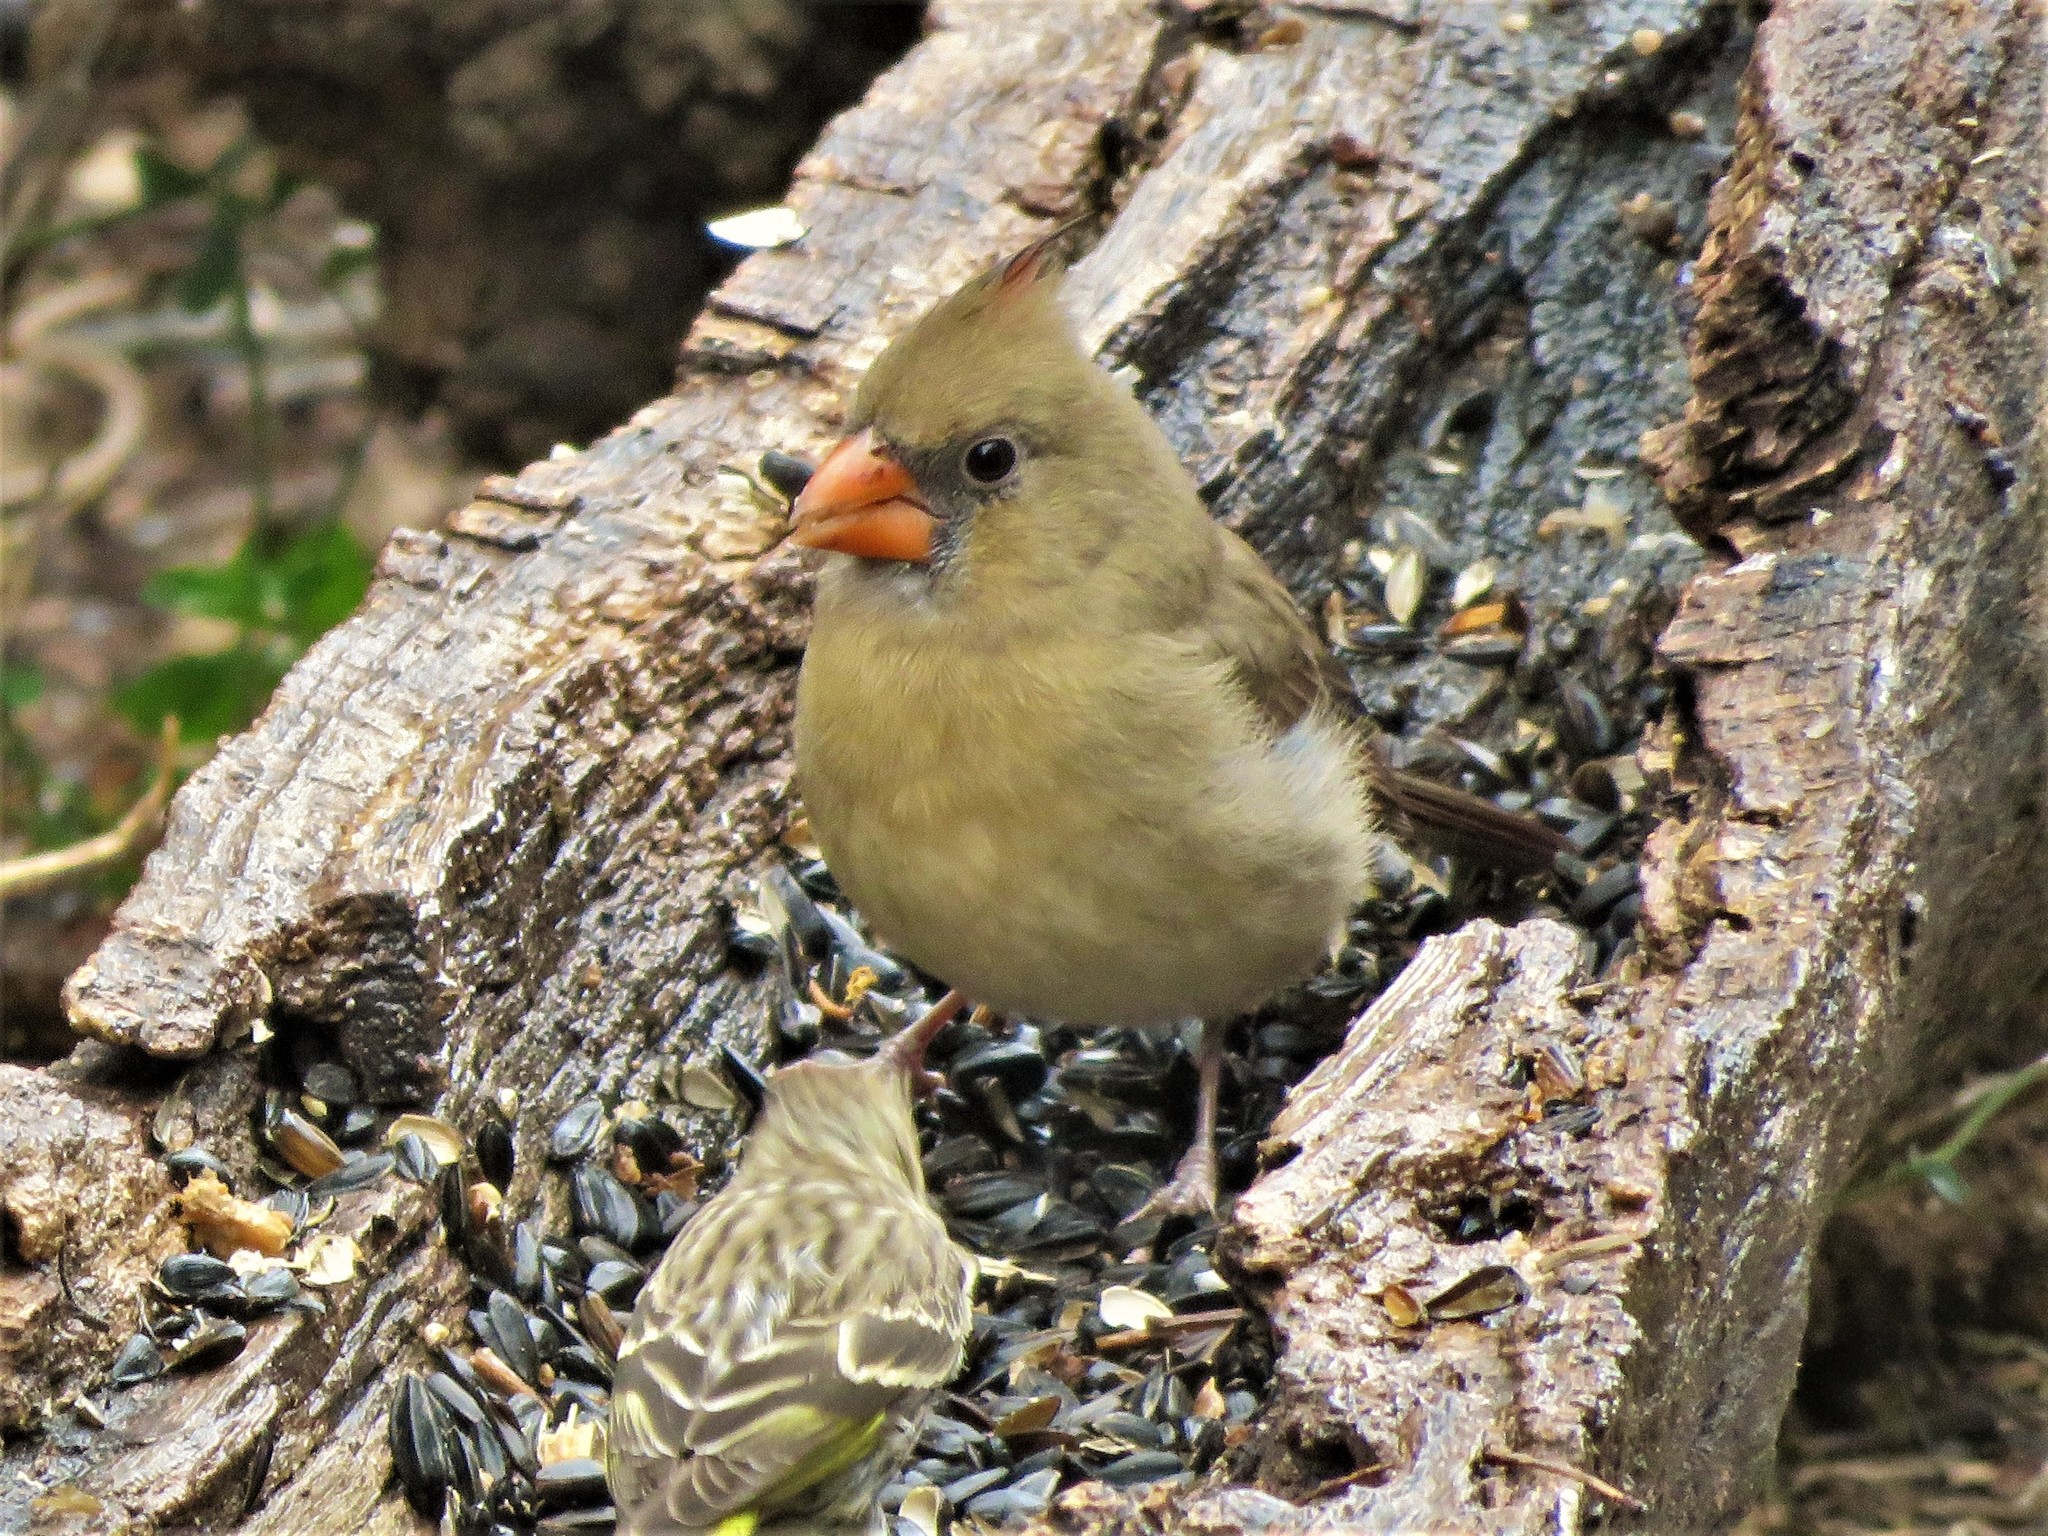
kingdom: Animalia
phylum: Chordata
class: Aves
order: Passeriformes
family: Cardinalidae
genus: Cardinalis
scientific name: Cardinalis cardinalis
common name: Northern cardinal
